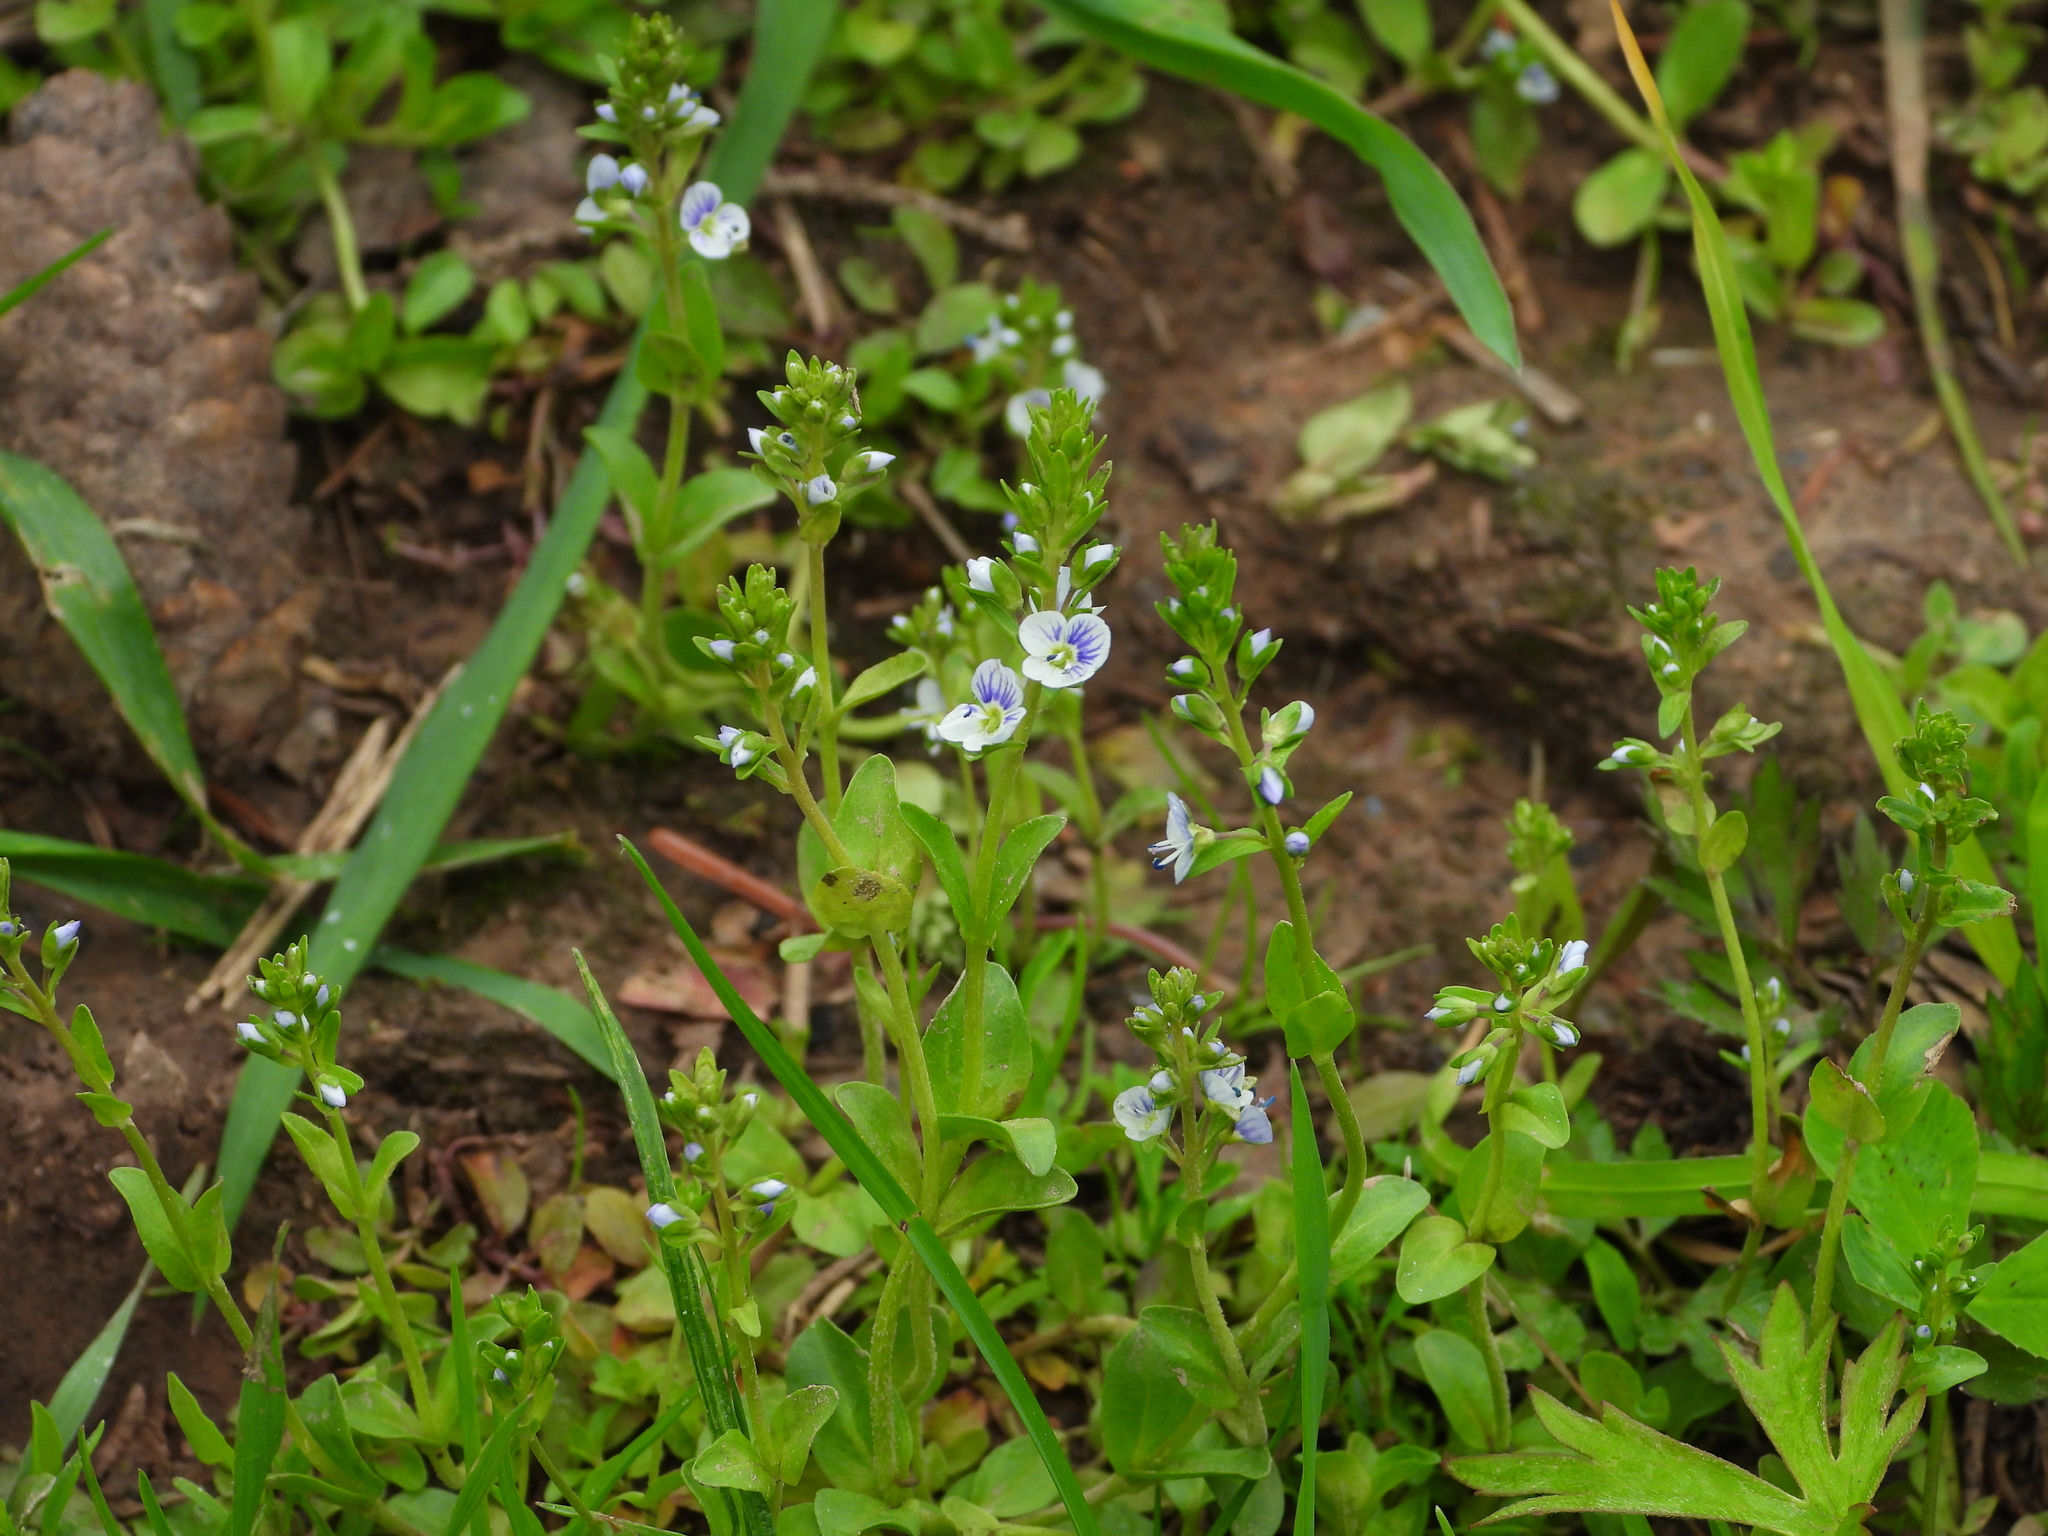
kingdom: Plantae
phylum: Tracheophyta
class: Magnoliopsida
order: Lamiales
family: Plantaginaceae
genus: Veronica
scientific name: Veronica serpyllifolia
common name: Thyme-leaved speedwell
